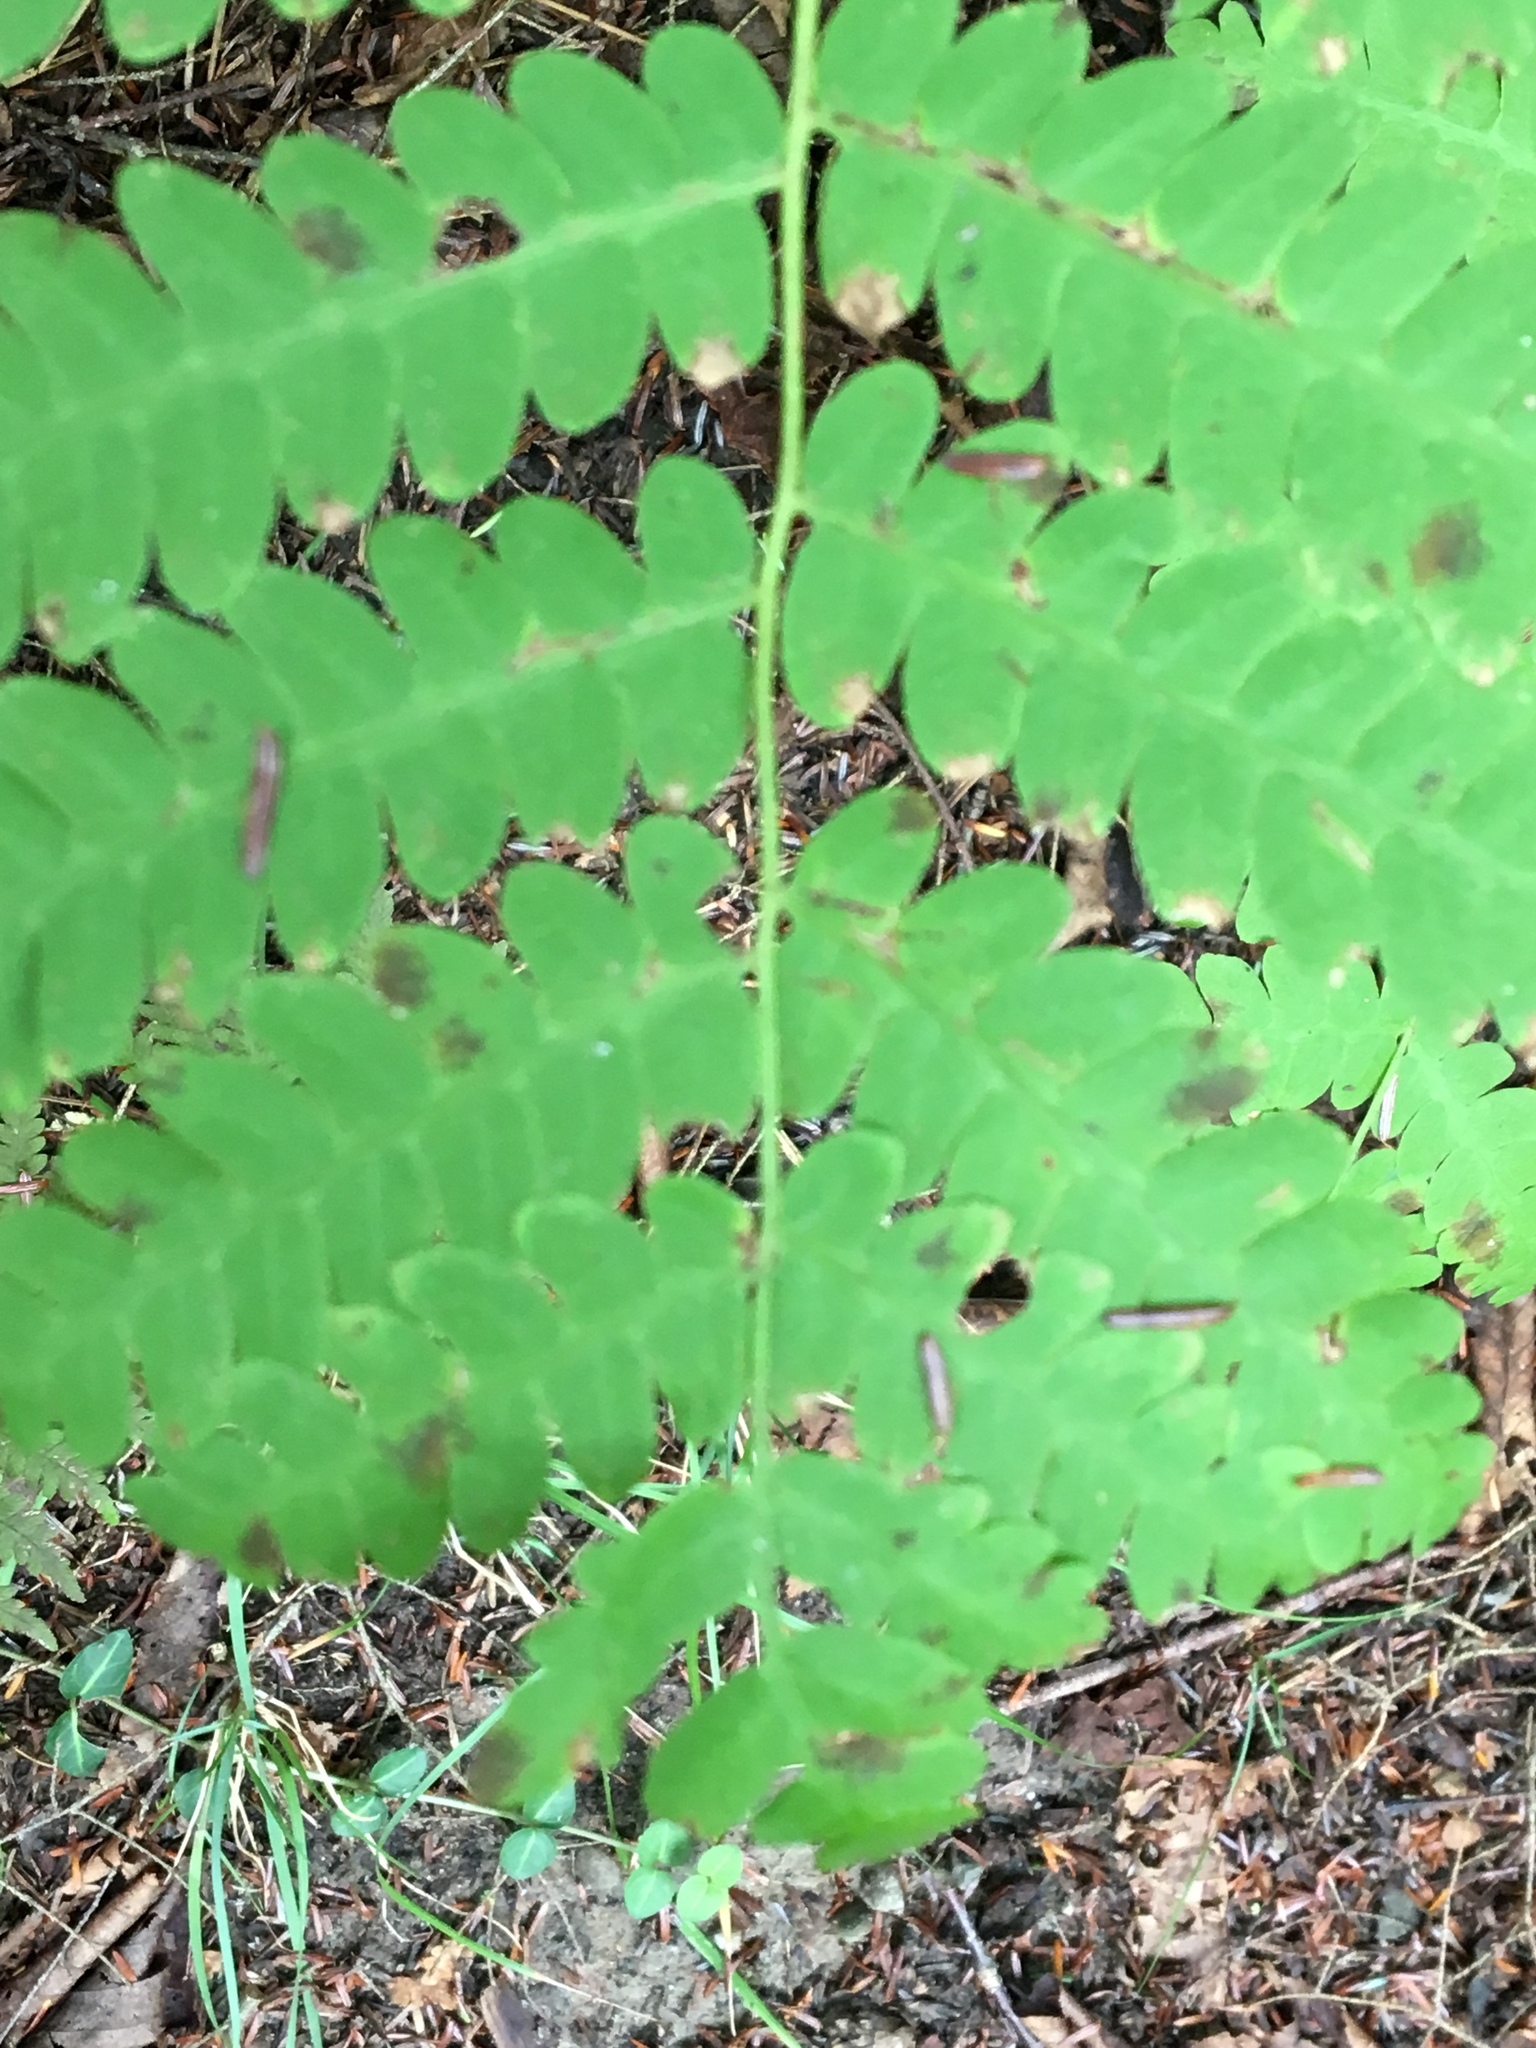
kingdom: Plantae
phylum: Tracheophyta
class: Polypodiopsida
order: Osmundales
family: Osmundaceae
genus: Claytosmunda
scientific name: Claytosmunda claytoniana
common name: Clayton's fern
